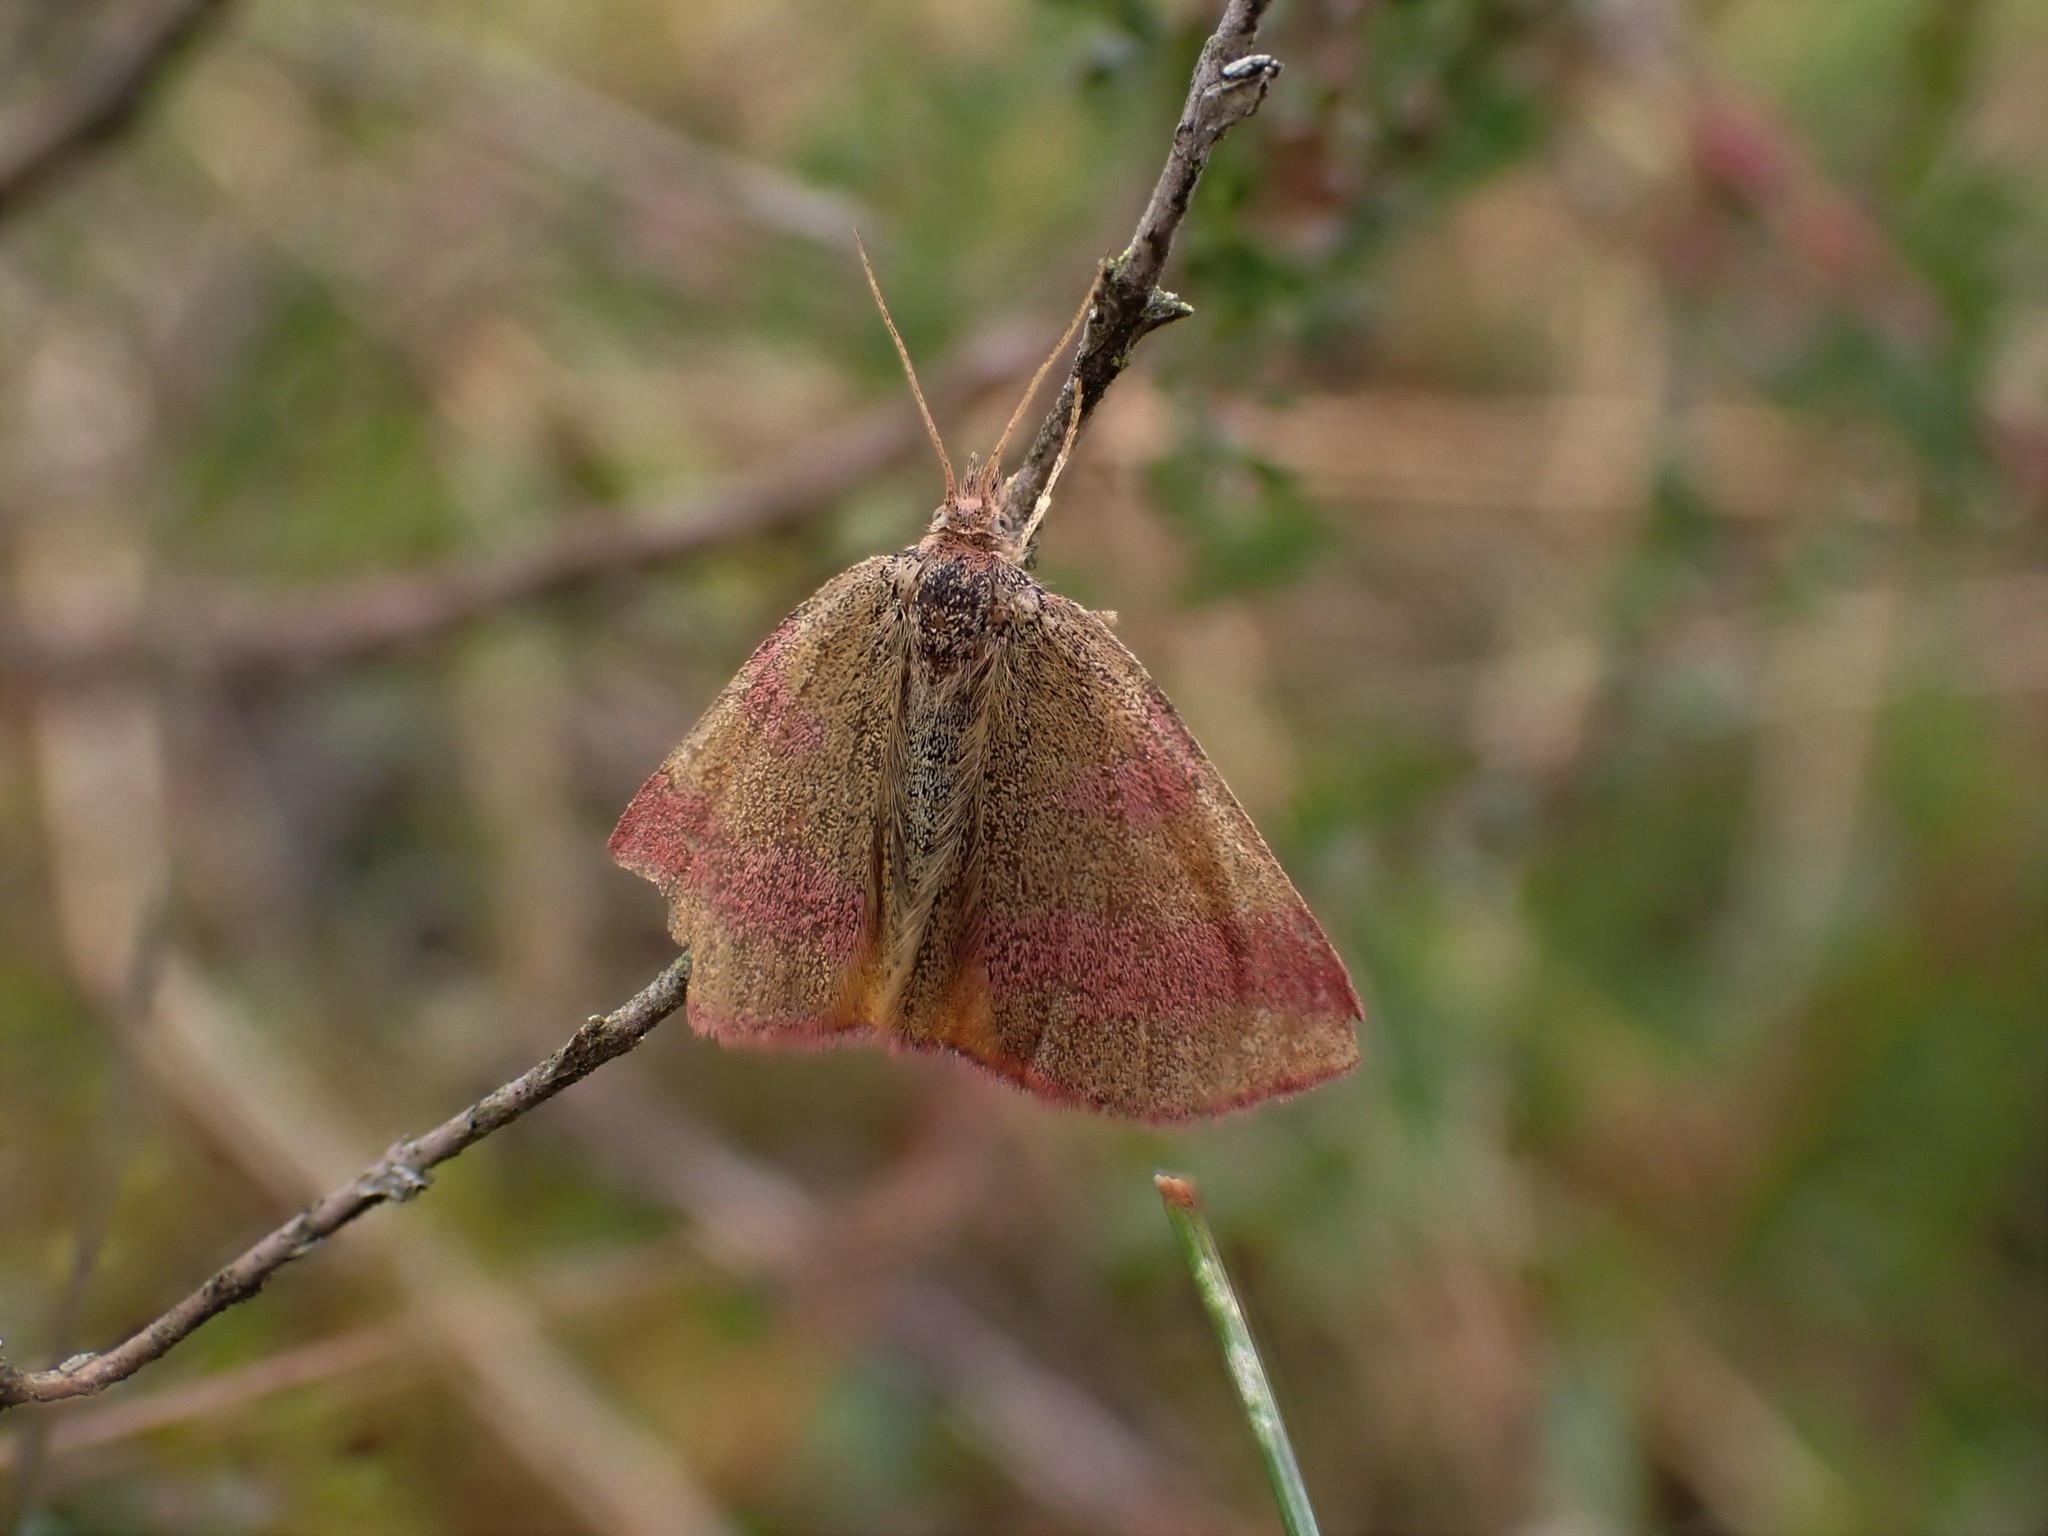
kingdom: Animalia
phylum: Arthropoda
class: Insecta
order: Lepidoptera
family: Geometridae
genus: Lythria
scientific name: Lythria cruentaria
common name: Purple-barred yellow
